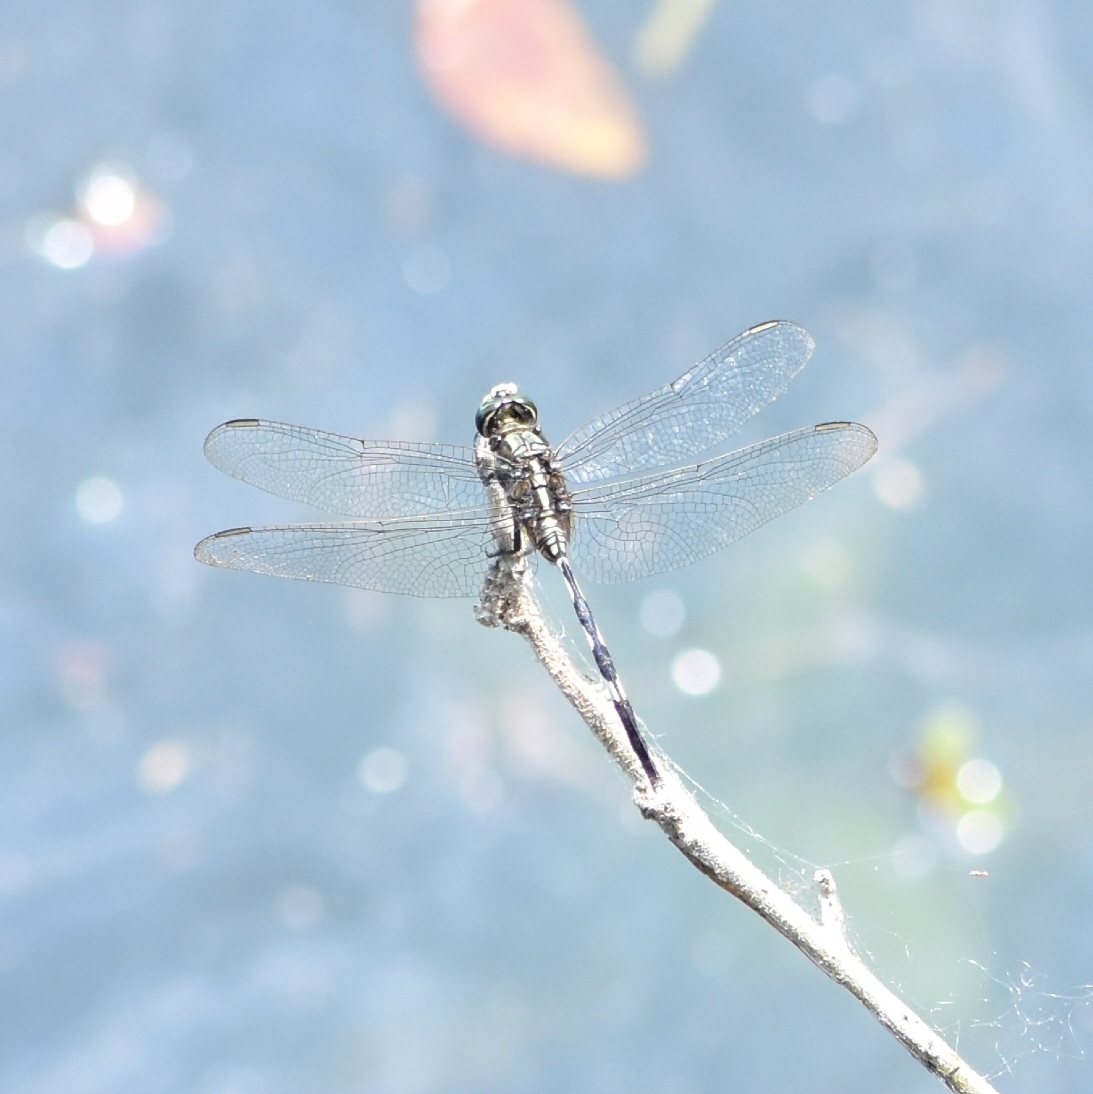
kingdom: Animalia
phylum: Arthropoda
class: Insecta
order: Odonata
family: Libellulidae
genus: Orthetrum
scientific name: Orthetrum sabina
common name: Slender skimmer
